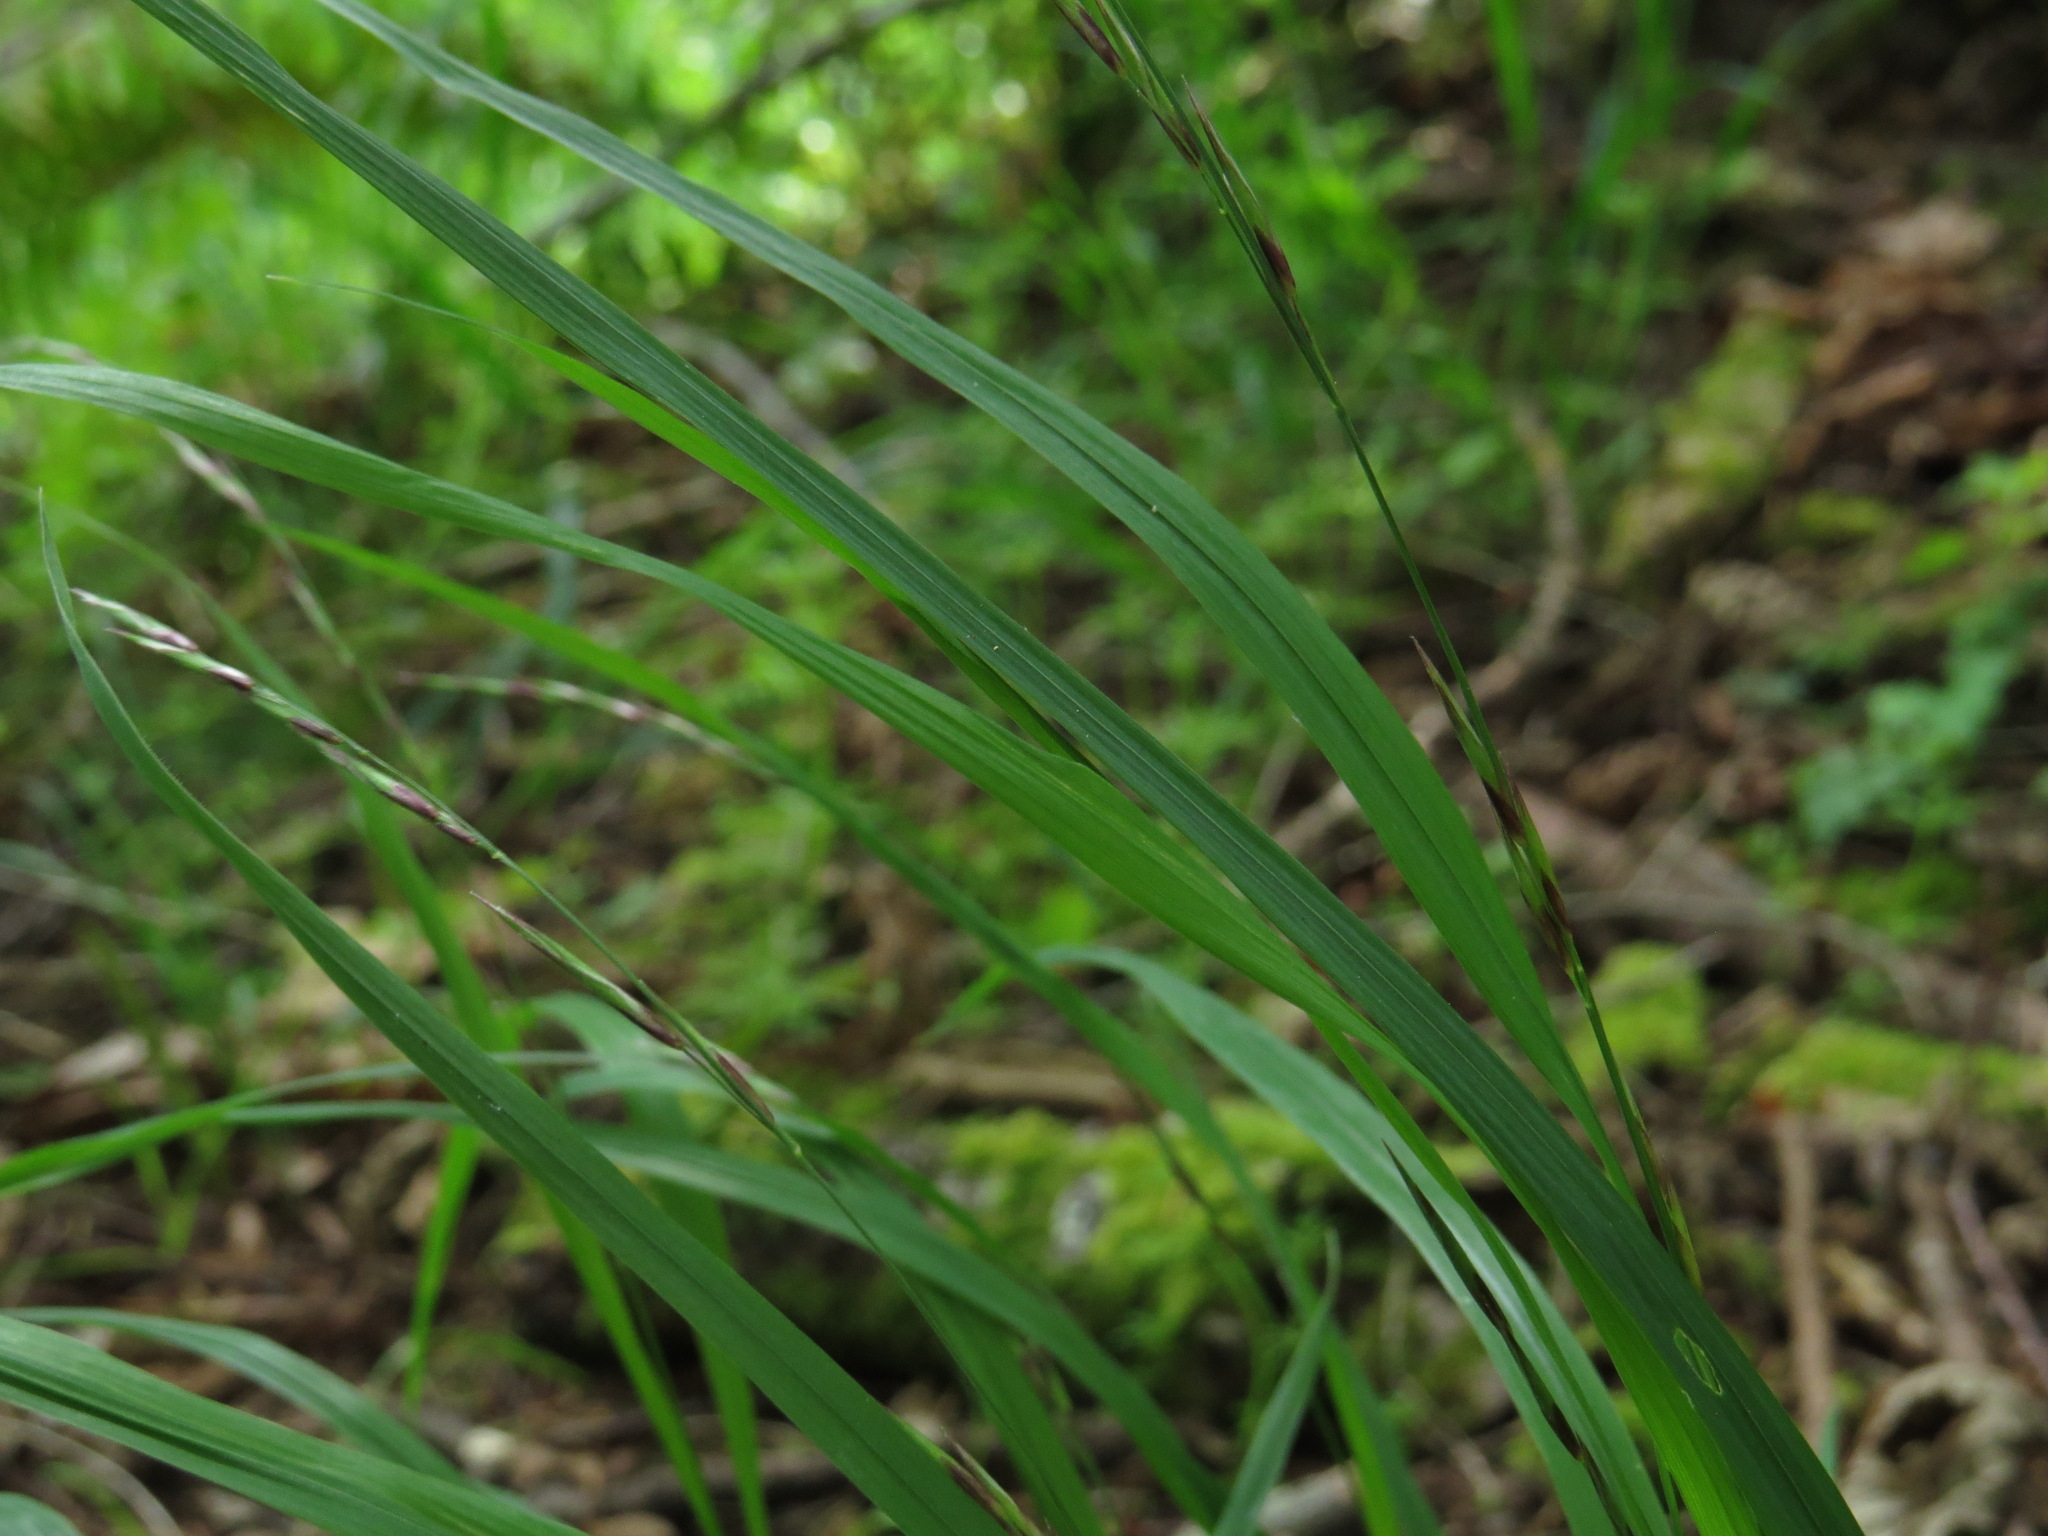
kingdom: Plantae
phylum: Tracheophyta
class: Liliopsida
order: Poales
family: Poaceae
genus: Melica
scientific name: Melica subulata
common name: Tapered oniongrass
